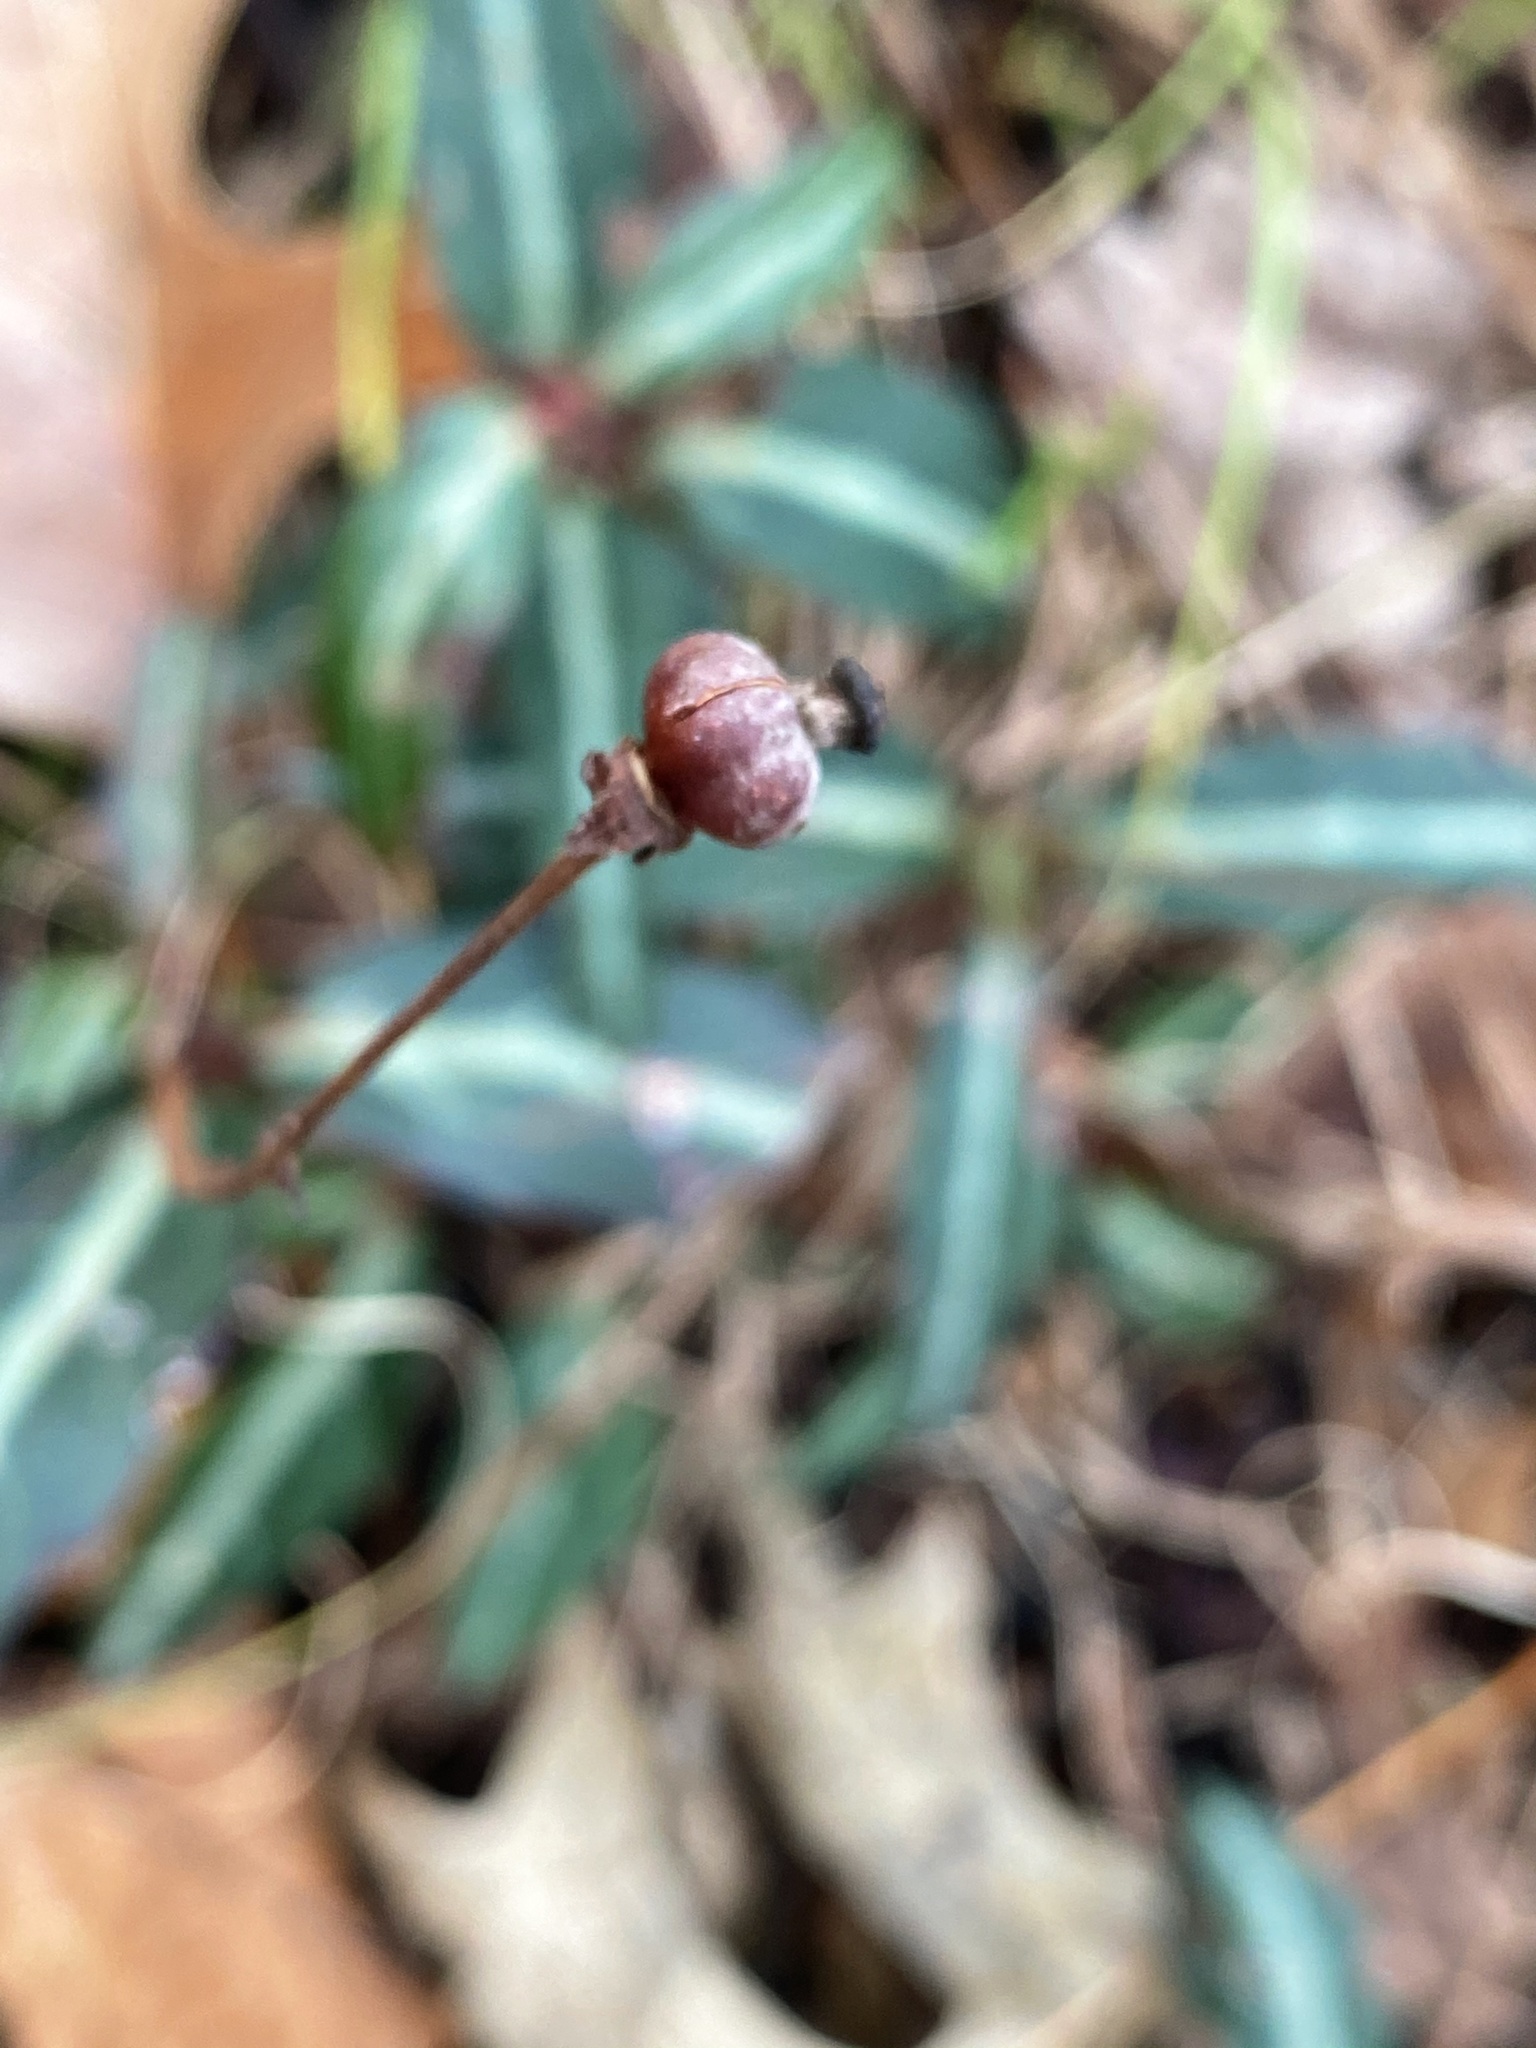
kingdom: Plantae
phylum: Tracheophyta
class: Magnoliopsida
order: Ericales
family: Ericaceae
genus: Chimaphila
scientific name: Chimaphila maculata
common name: Spotted pipsissewa
